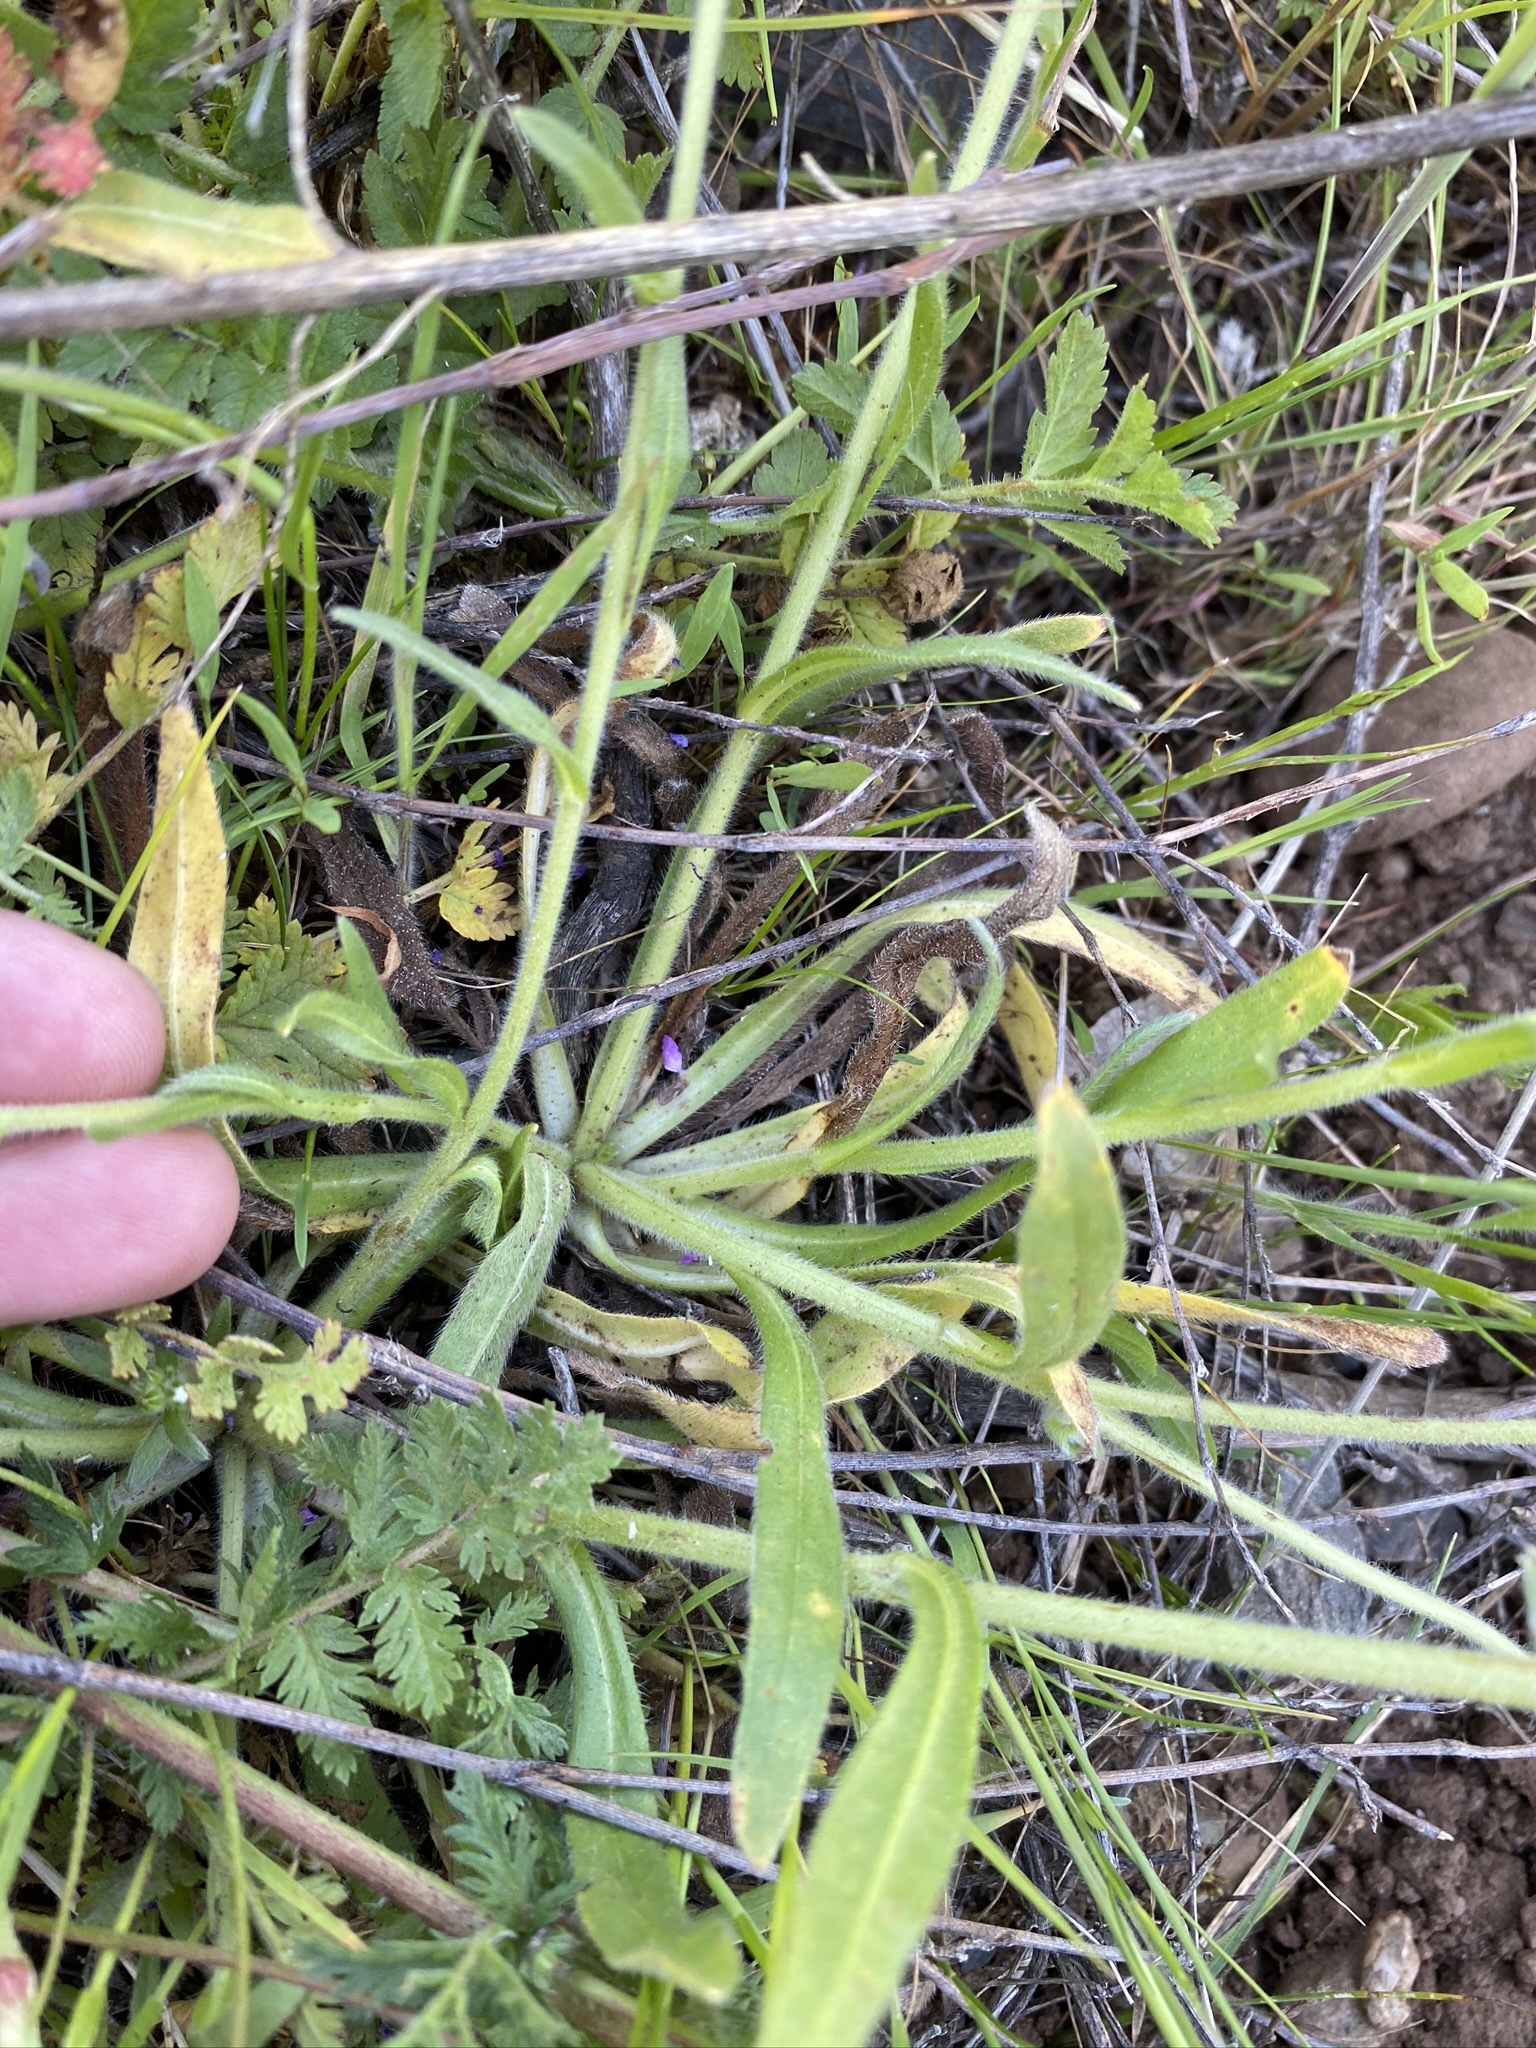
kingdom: Plantae
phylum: Tracheophyta
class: Magnoliopsida
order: Boraginales
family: Boraginaceae
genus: Plagiobothrys
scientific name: Plagiobothrys canescens
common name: Valley popcorn-flower
